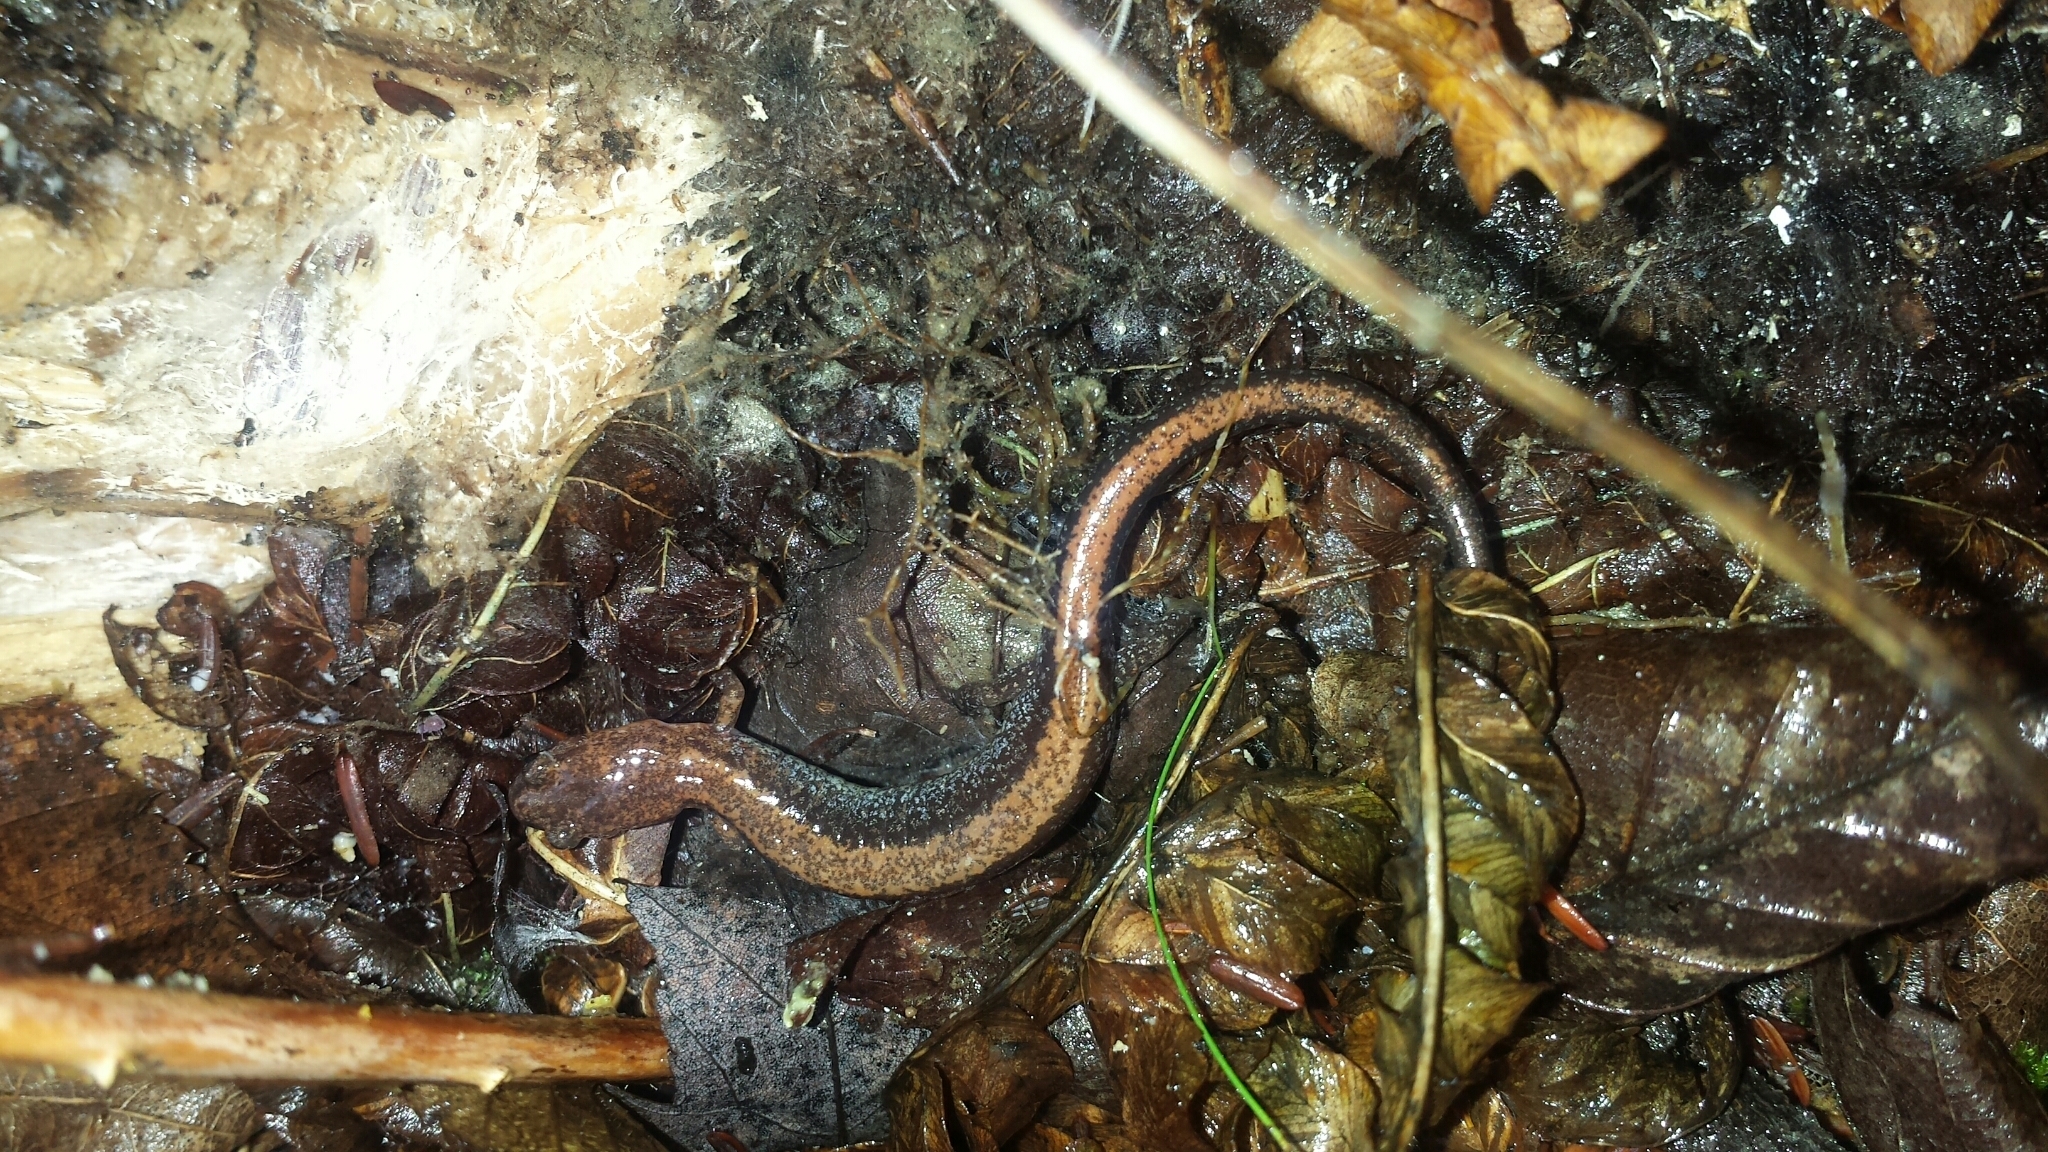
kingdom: Animalia
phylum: Chordata
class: Amphibia
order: Caudata
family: Plethodontidae
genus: Plethodon
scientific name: Plethodon cinereus
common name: Redback salamander
